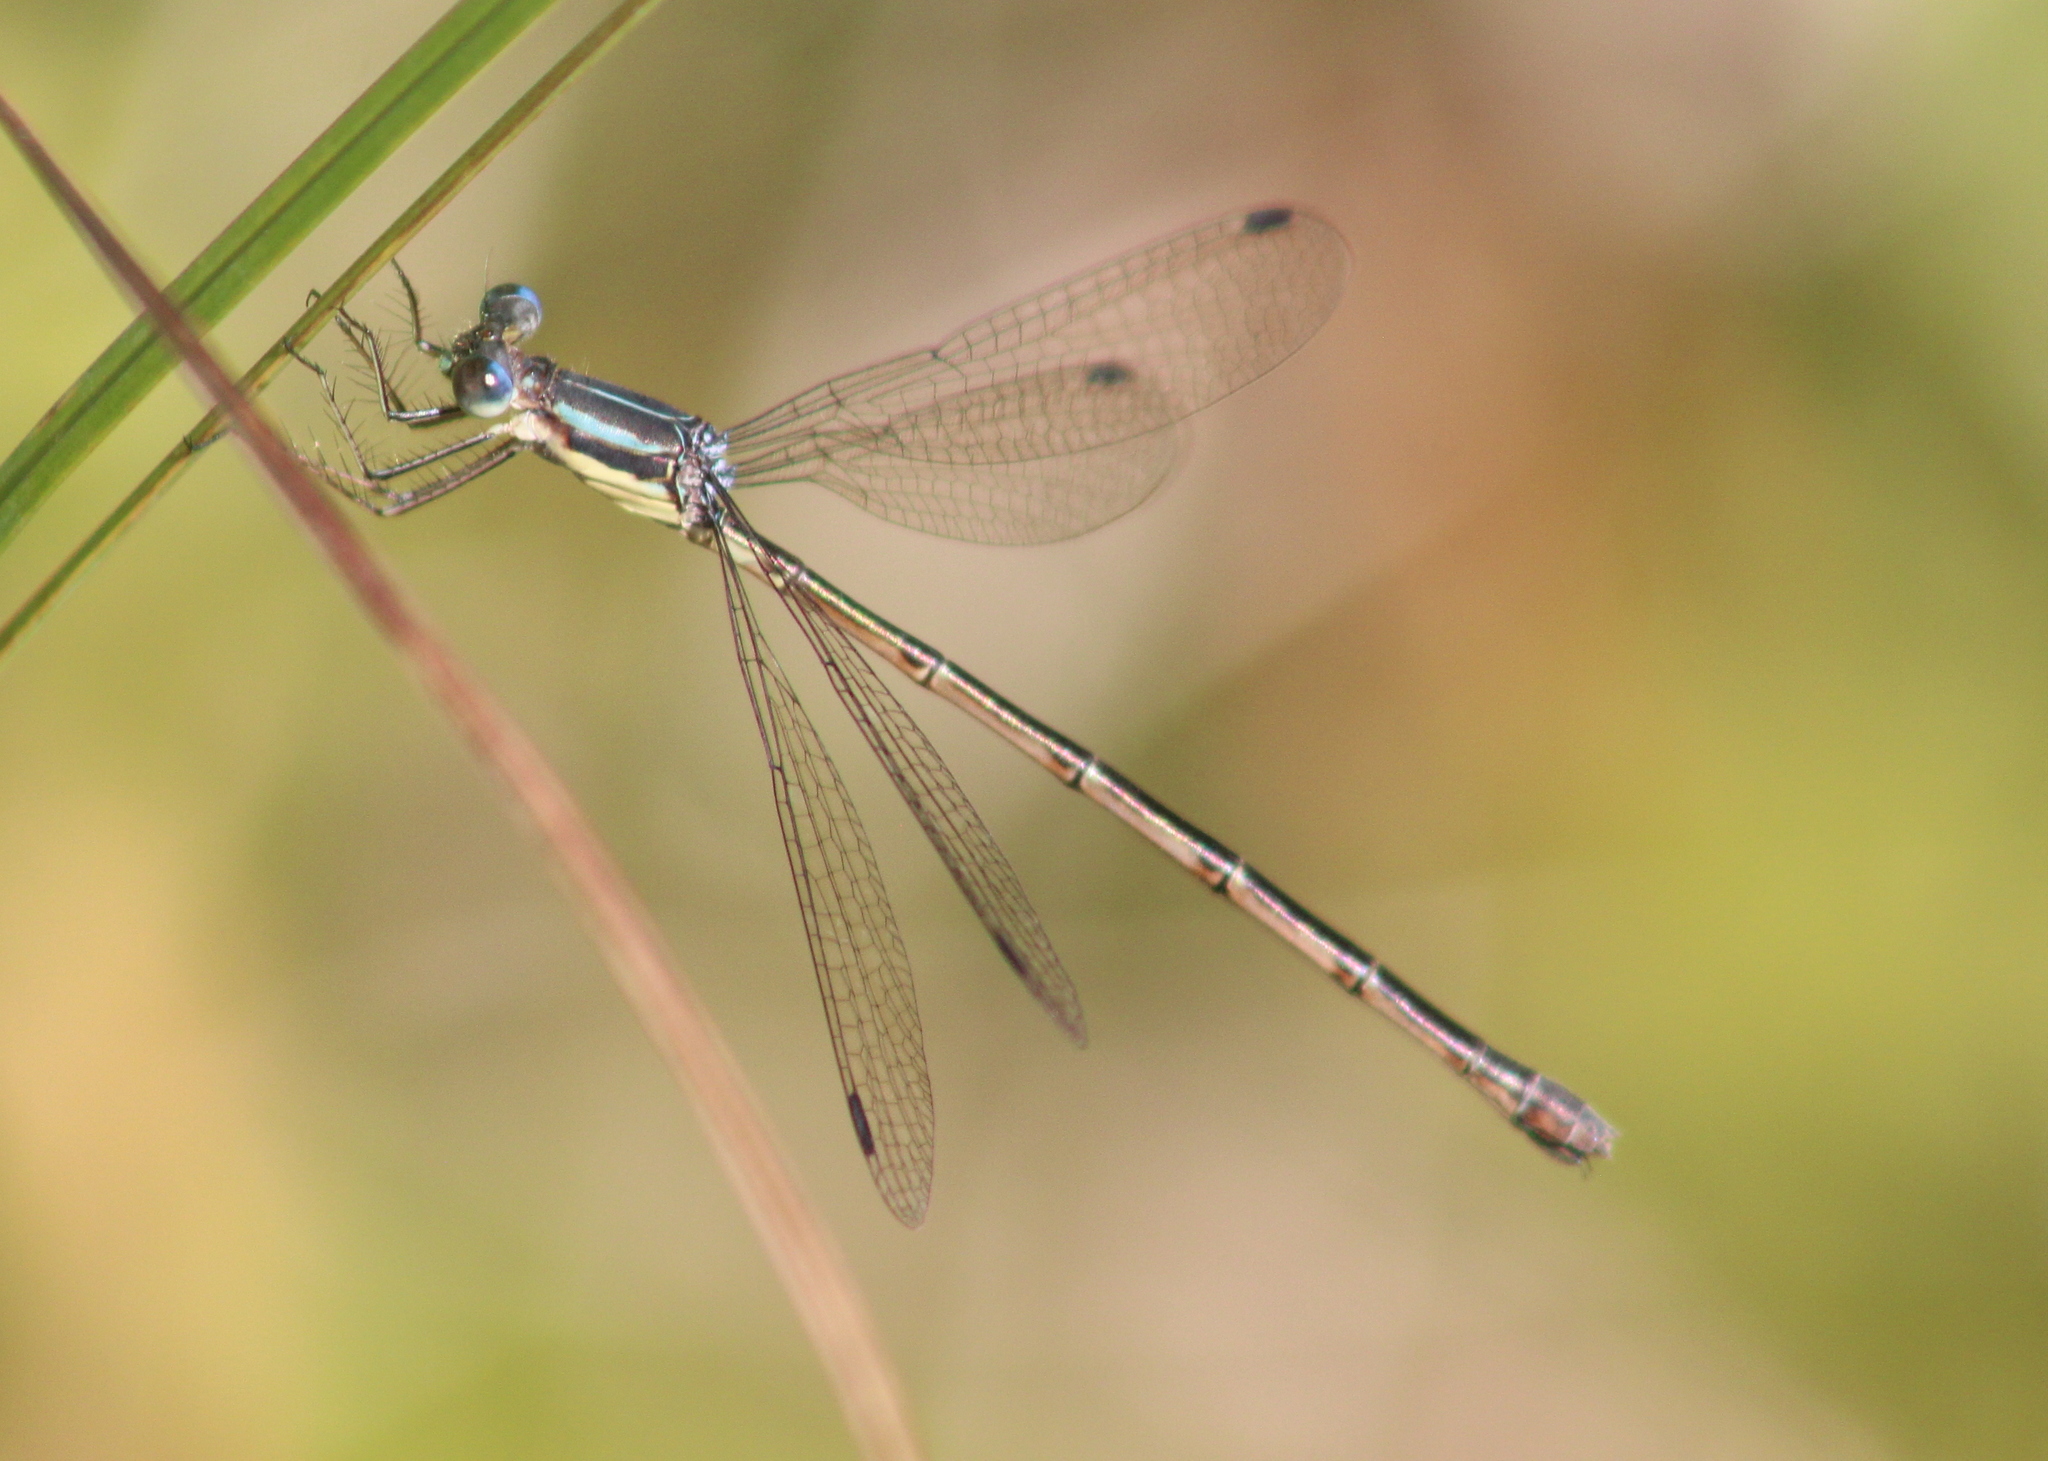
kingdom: Animalia
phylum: Arthropoda
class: Insecta
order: Odonata
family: Lestidae
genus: Lestes
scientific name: Lestes rectangularis
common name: Slender spreadwing
